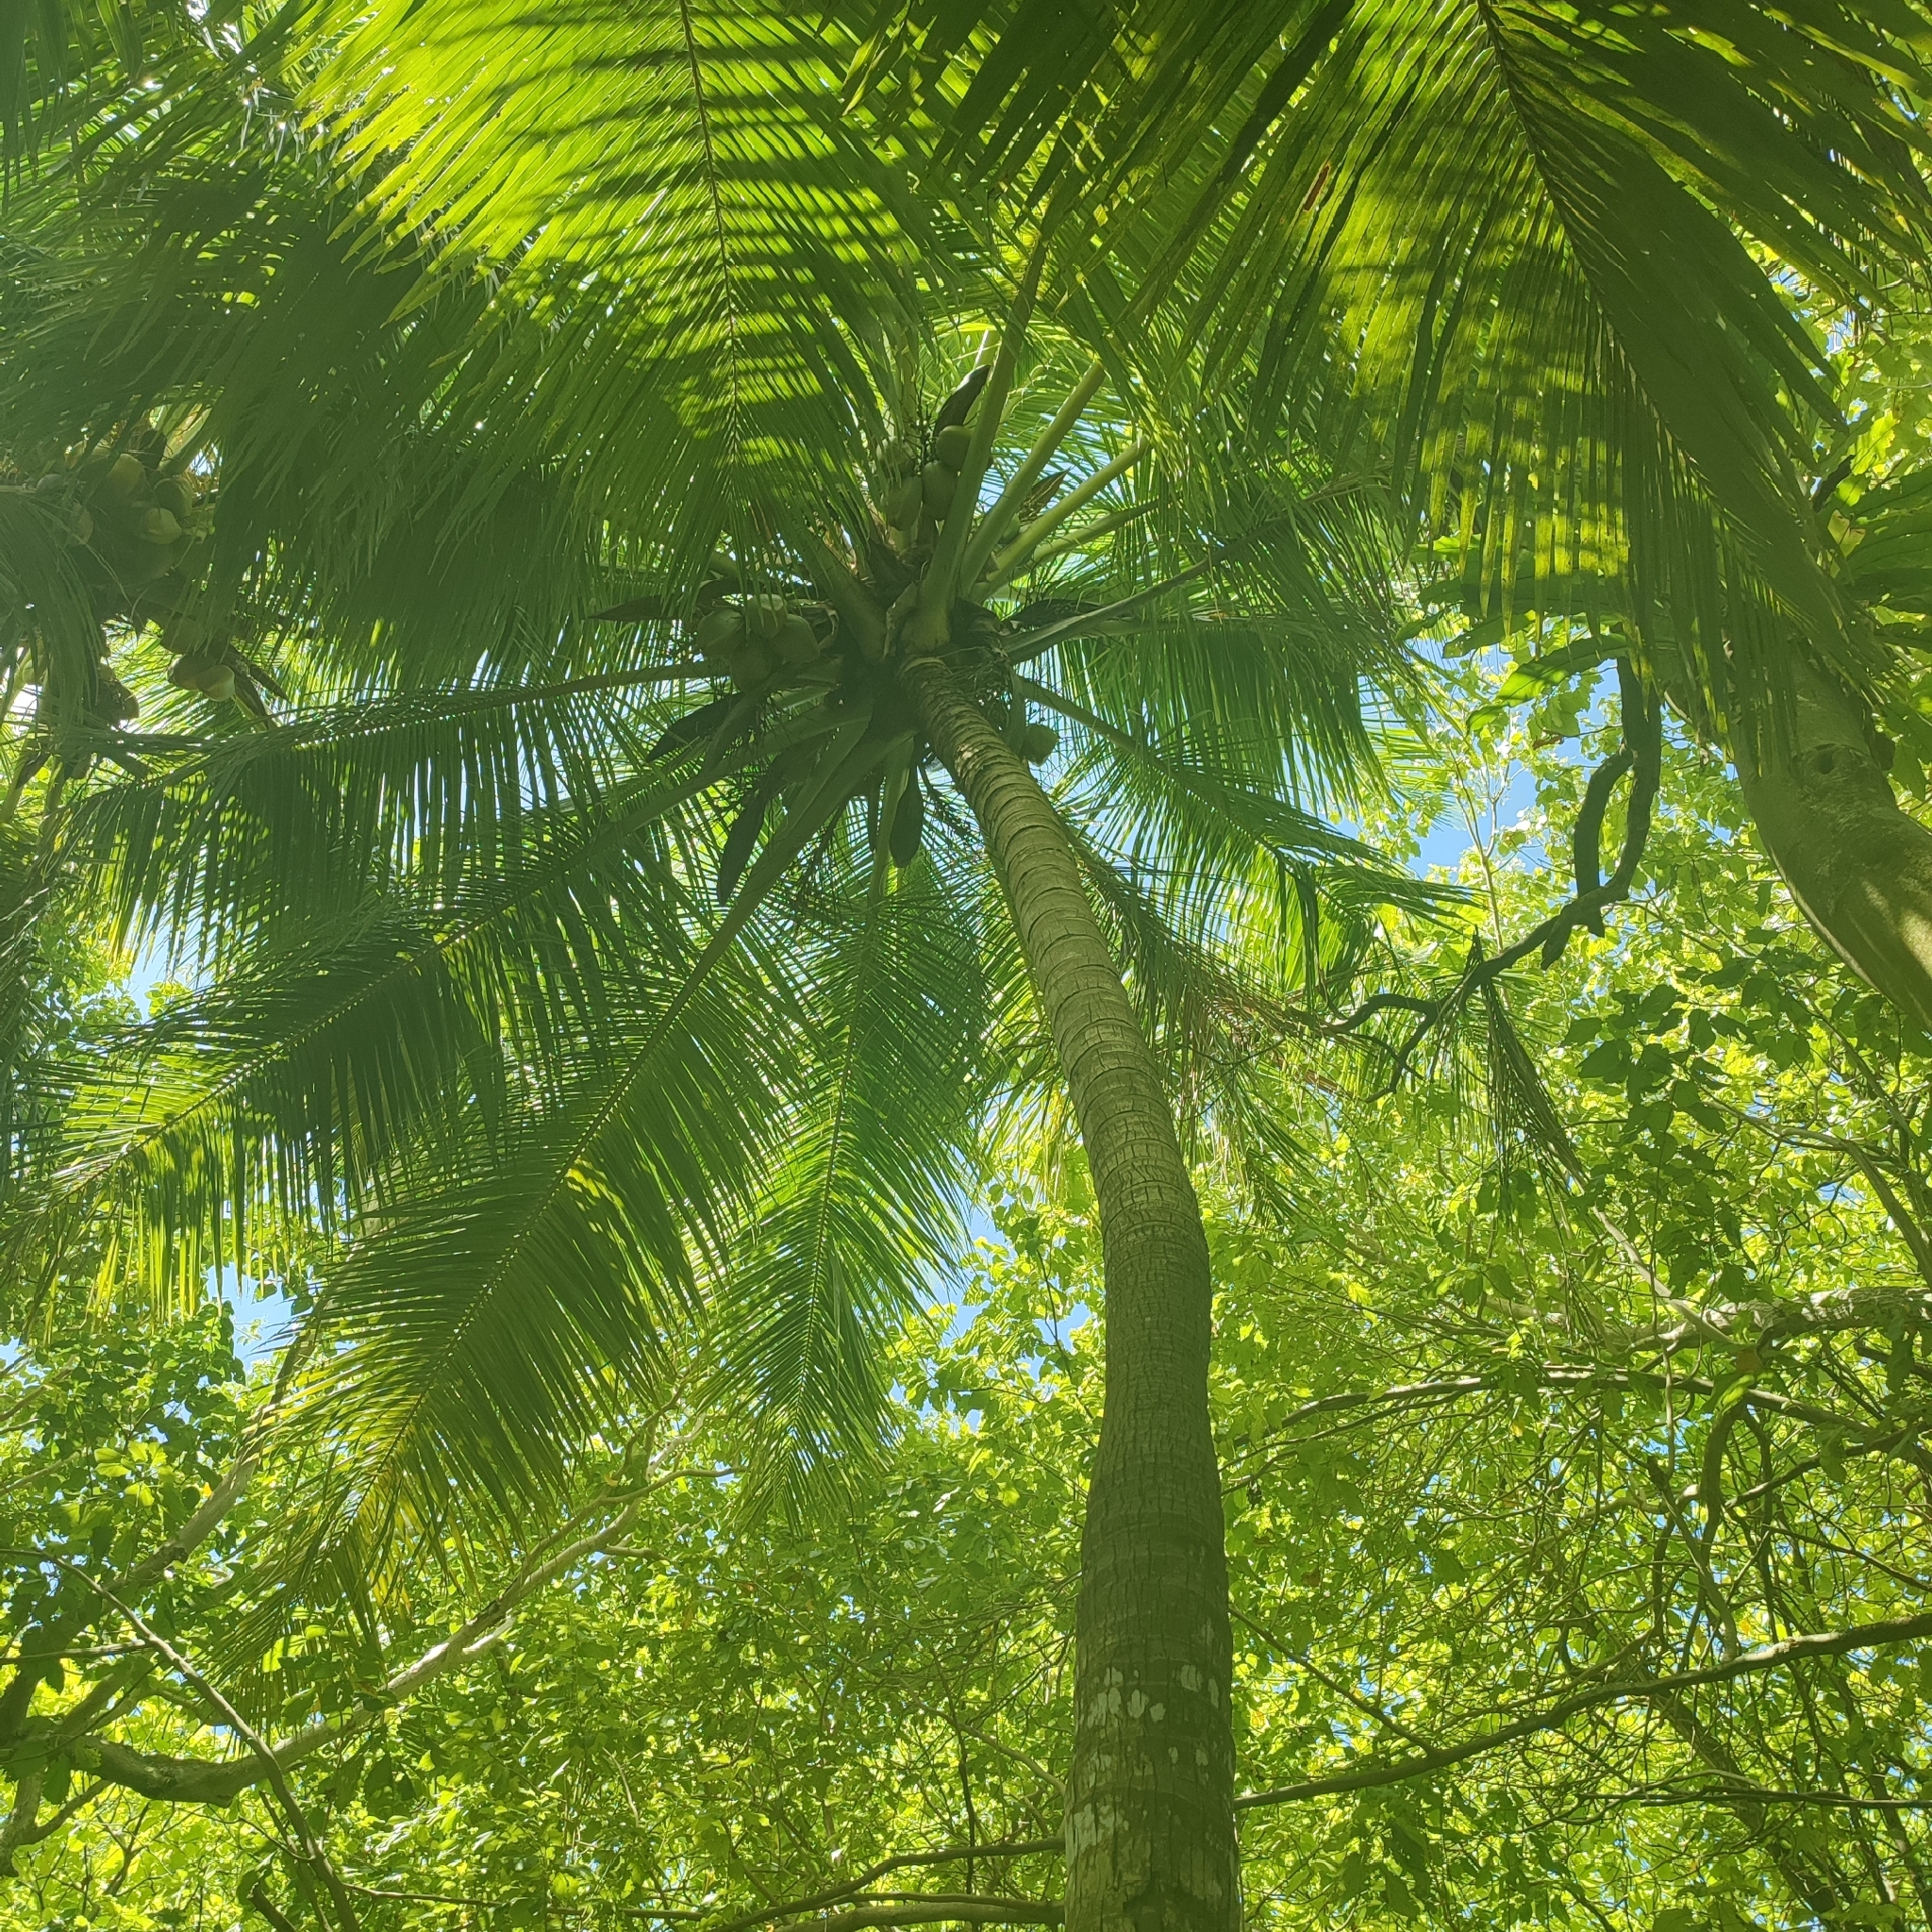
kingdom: Plantae
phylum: Tracheophyta
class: Liliopsida
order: Arecales
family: Arecaceae
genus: Cocos
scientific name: Cocos nucifera
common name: Coconut palm
